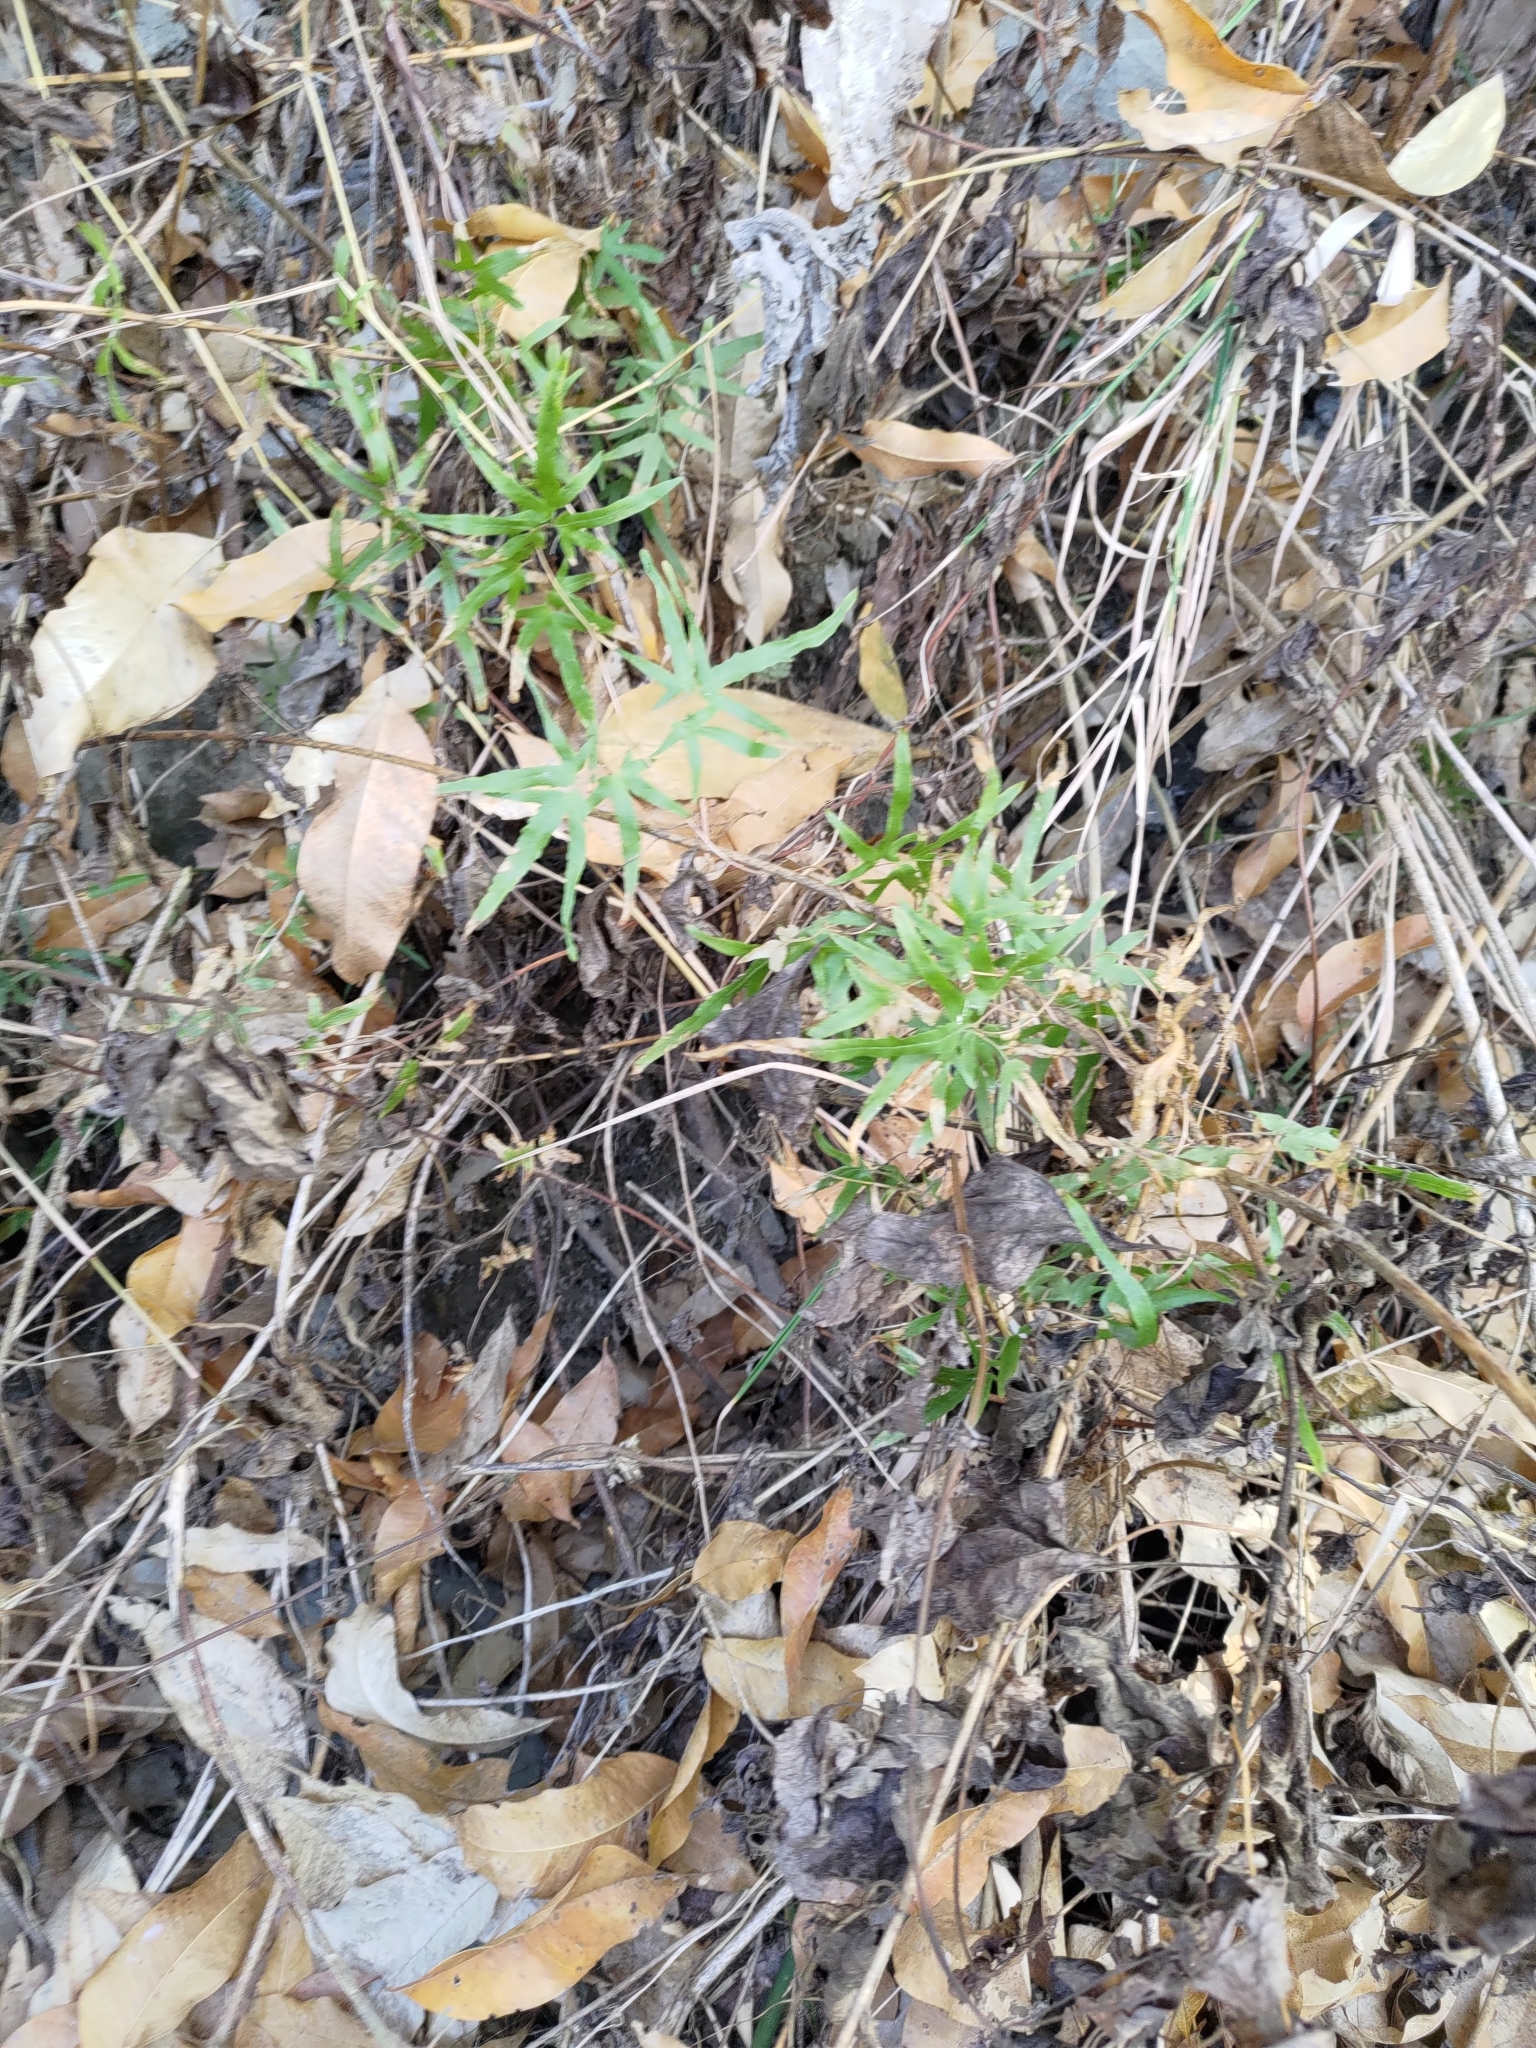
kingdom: Plantae
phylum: Tracheophyta
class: Polypodiopsida
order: Schizaeales
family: Lygodiaceae
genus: Lygodium
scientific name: Lygodium japonicum
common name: Japanese climbing fern
